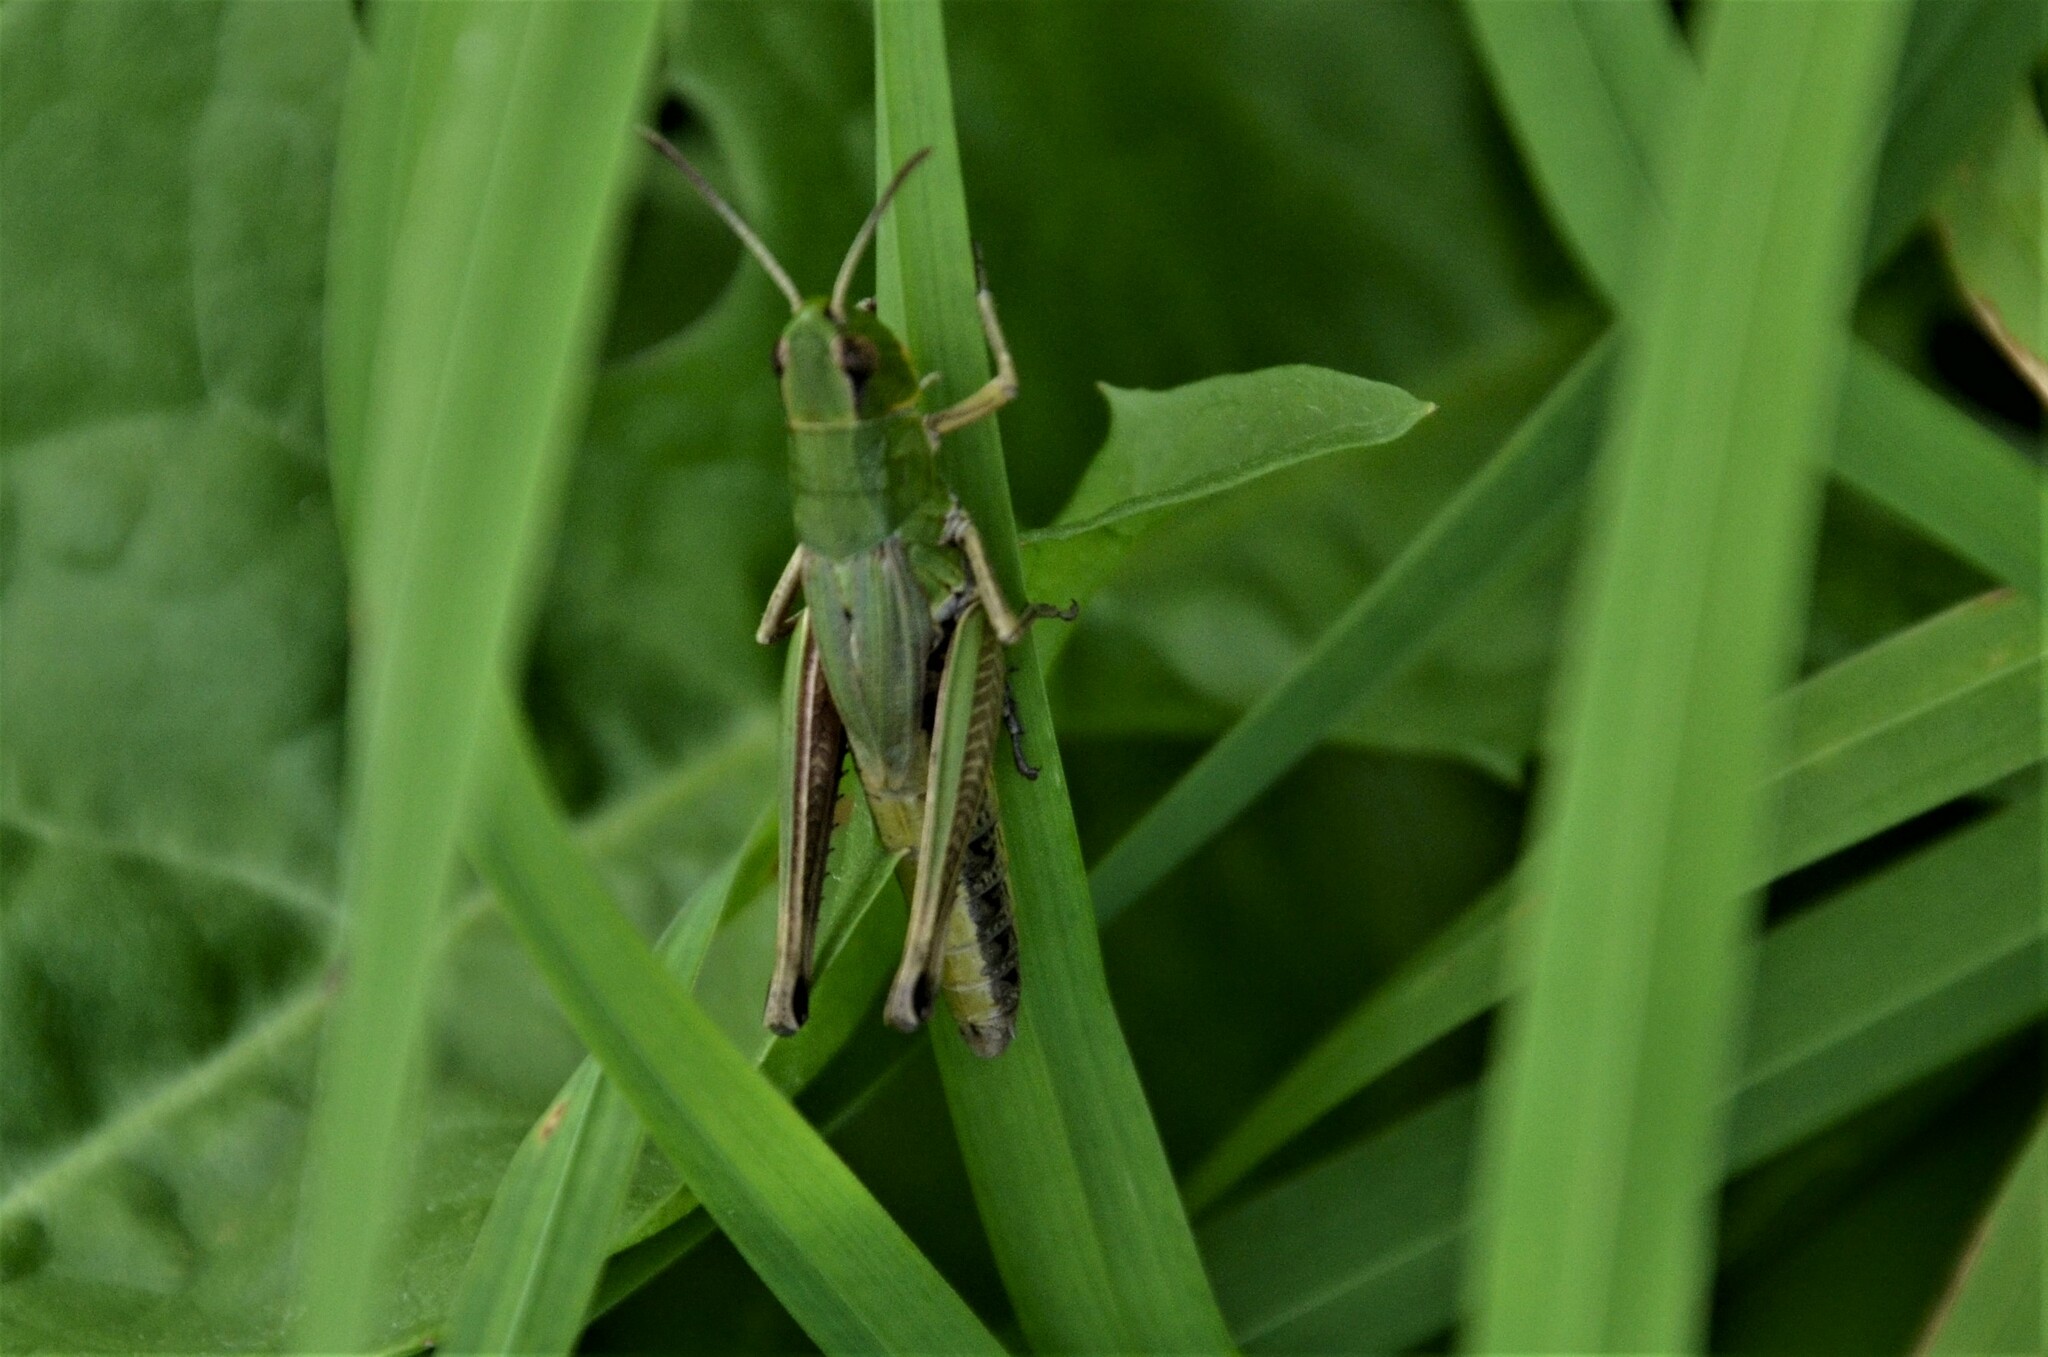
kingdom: Animalia
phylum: Arthropoda
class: Insecta
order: Orthoptera
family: Acrididae
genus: Pseudochorthippus
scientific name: Pseudochorthippus parallelus
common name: Meadow grasshopper
